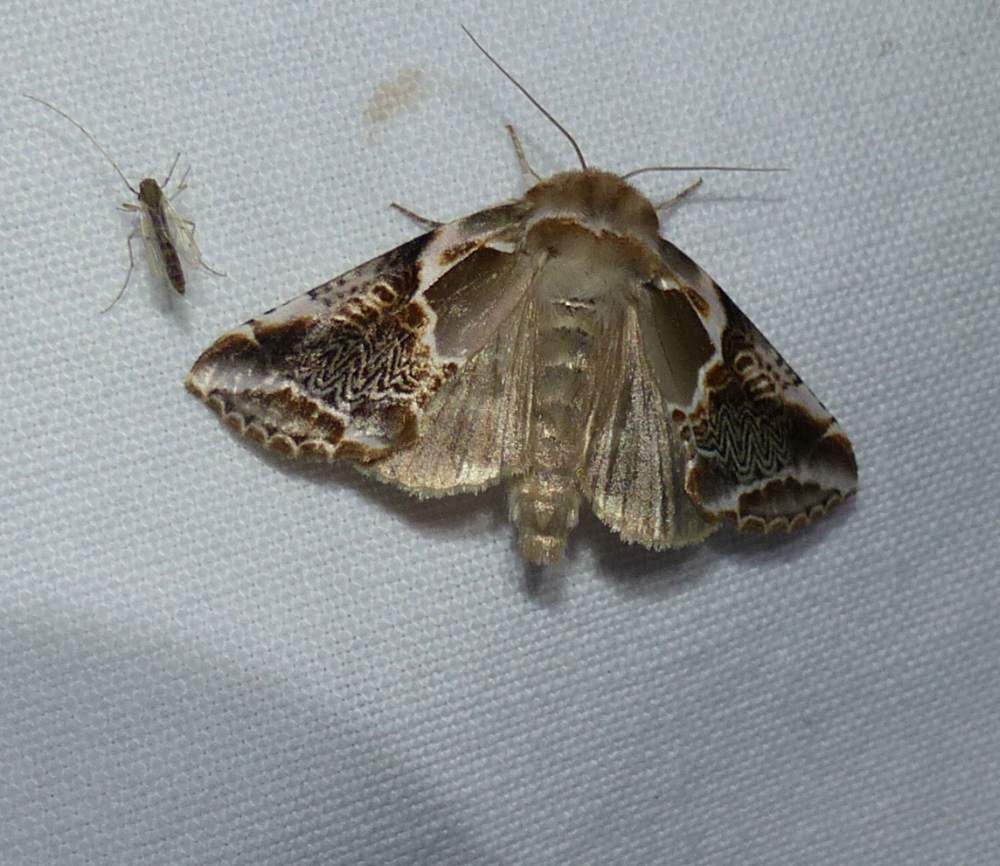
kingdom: Animalia
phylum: Arthropoda
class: Insecta
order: Lepidoptera
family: Drepanidae
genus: Habrosyne
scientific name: Habrosyne scripta
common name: Lettered habrosyne moth
